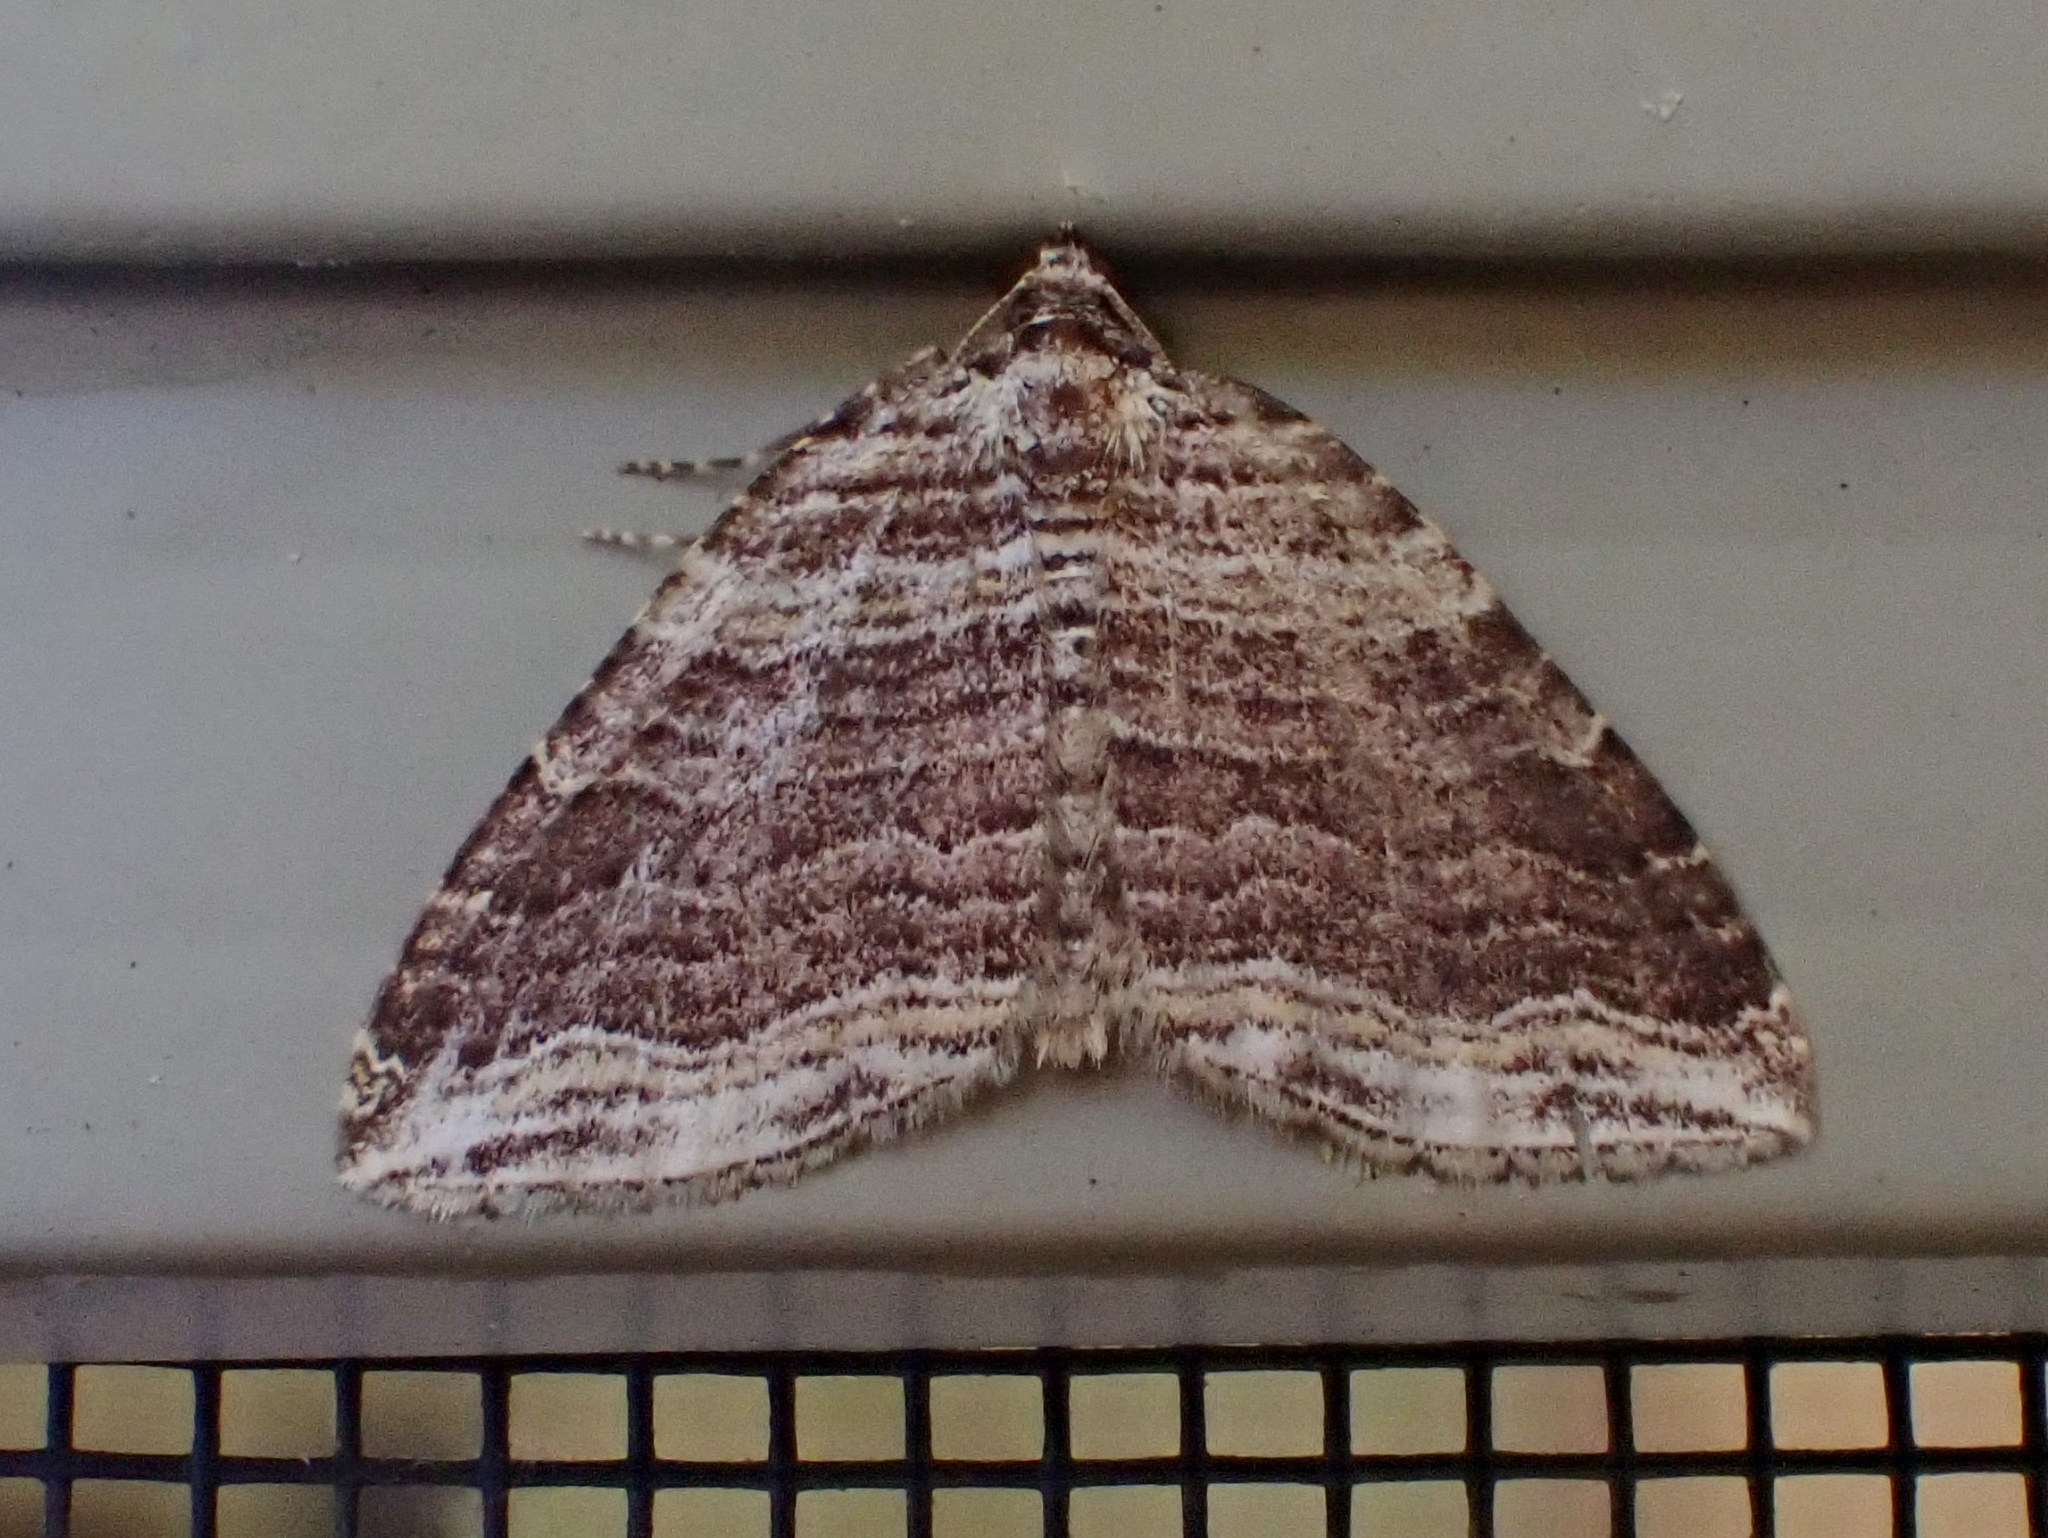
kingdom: Animalia
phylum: Arthropoda
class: Insecta
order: Lepidoptera
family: Geometridae
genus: Anticlea
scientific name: Anticlea multiferata
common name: Many-lined carpet
